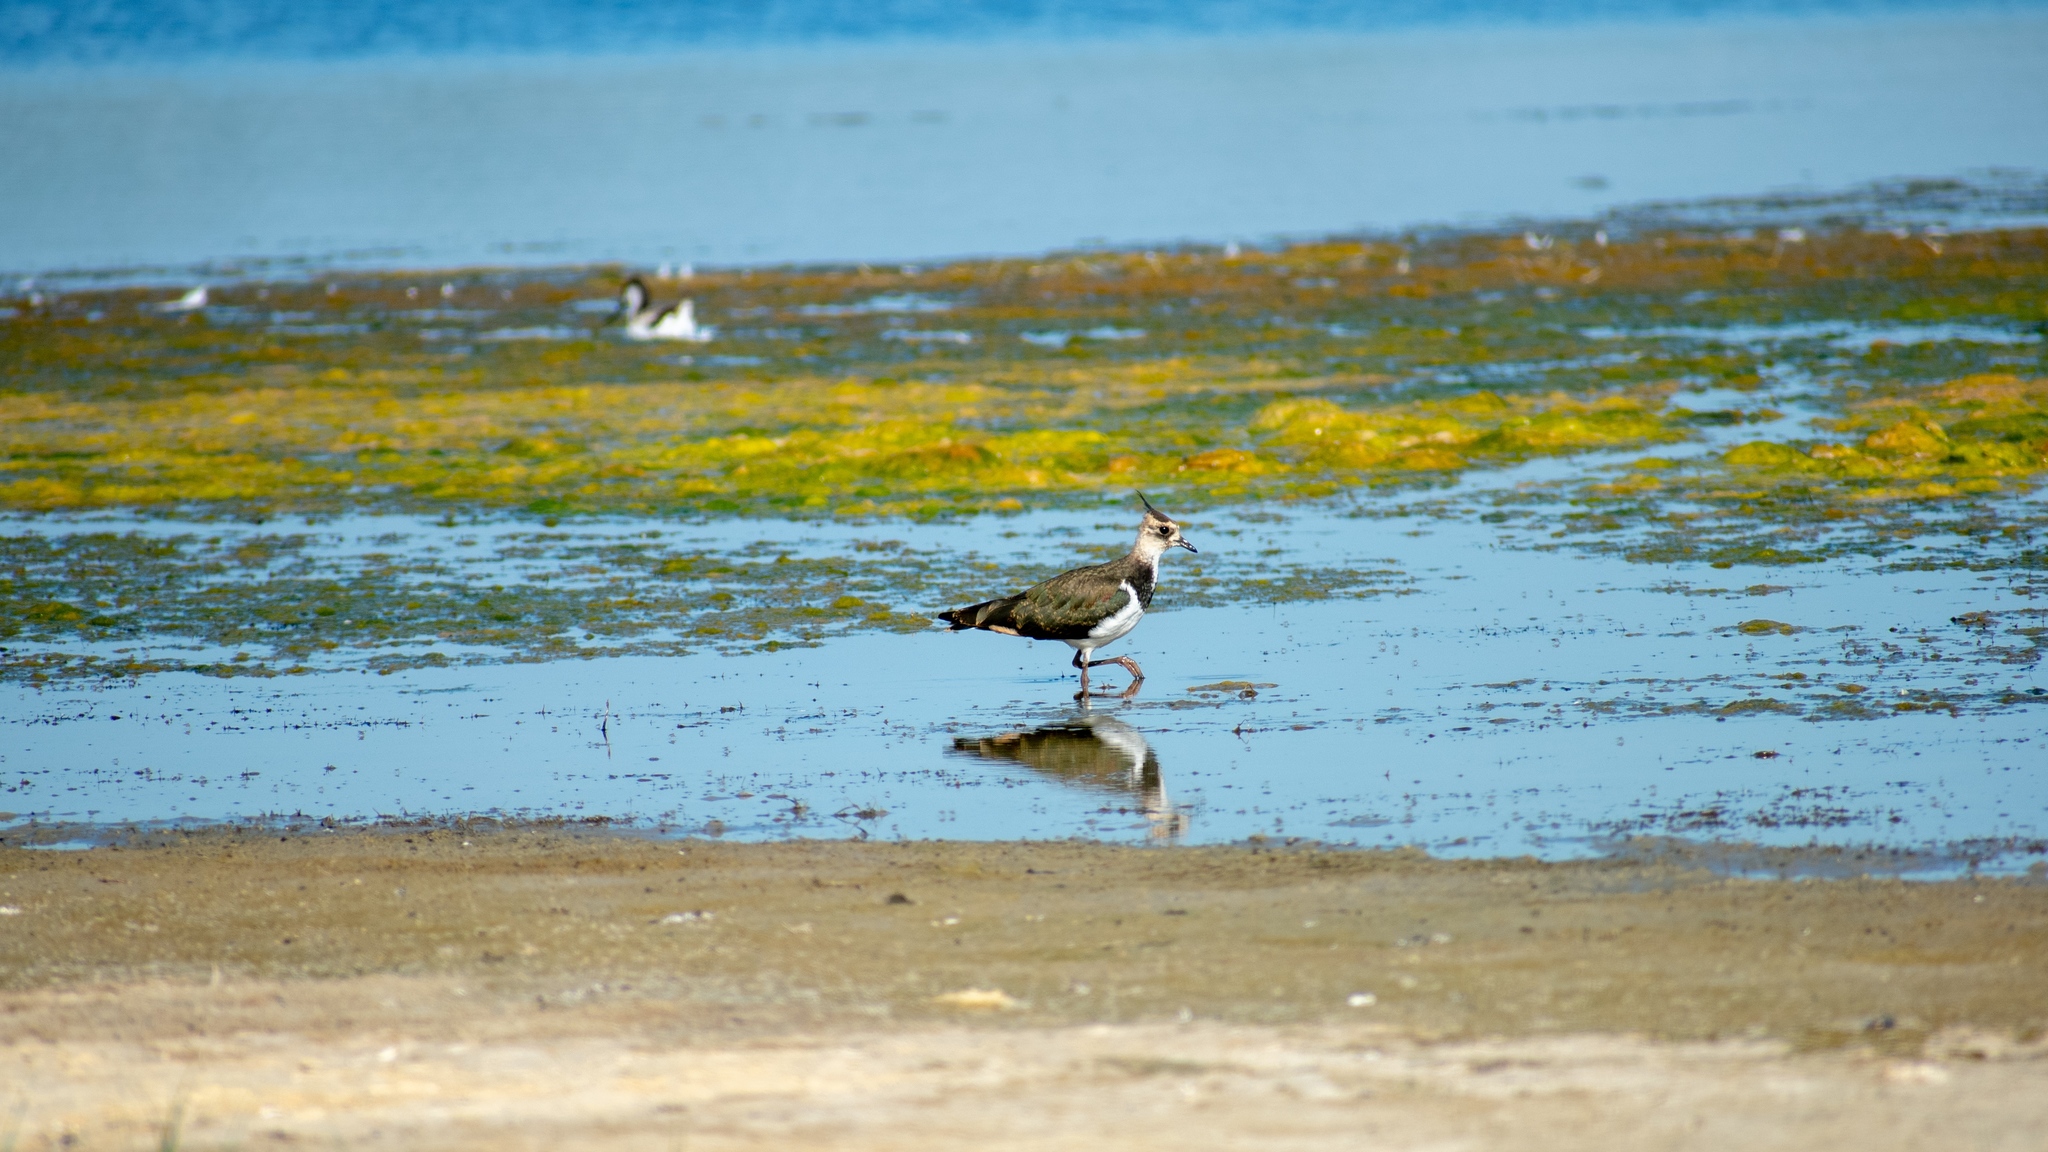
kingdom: Animalia
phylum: Chordata
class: Aves
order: Charadriiformes
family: Charadriidae
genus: Vanellus
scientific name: Vanellus vanellus
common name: Northern lapwing
